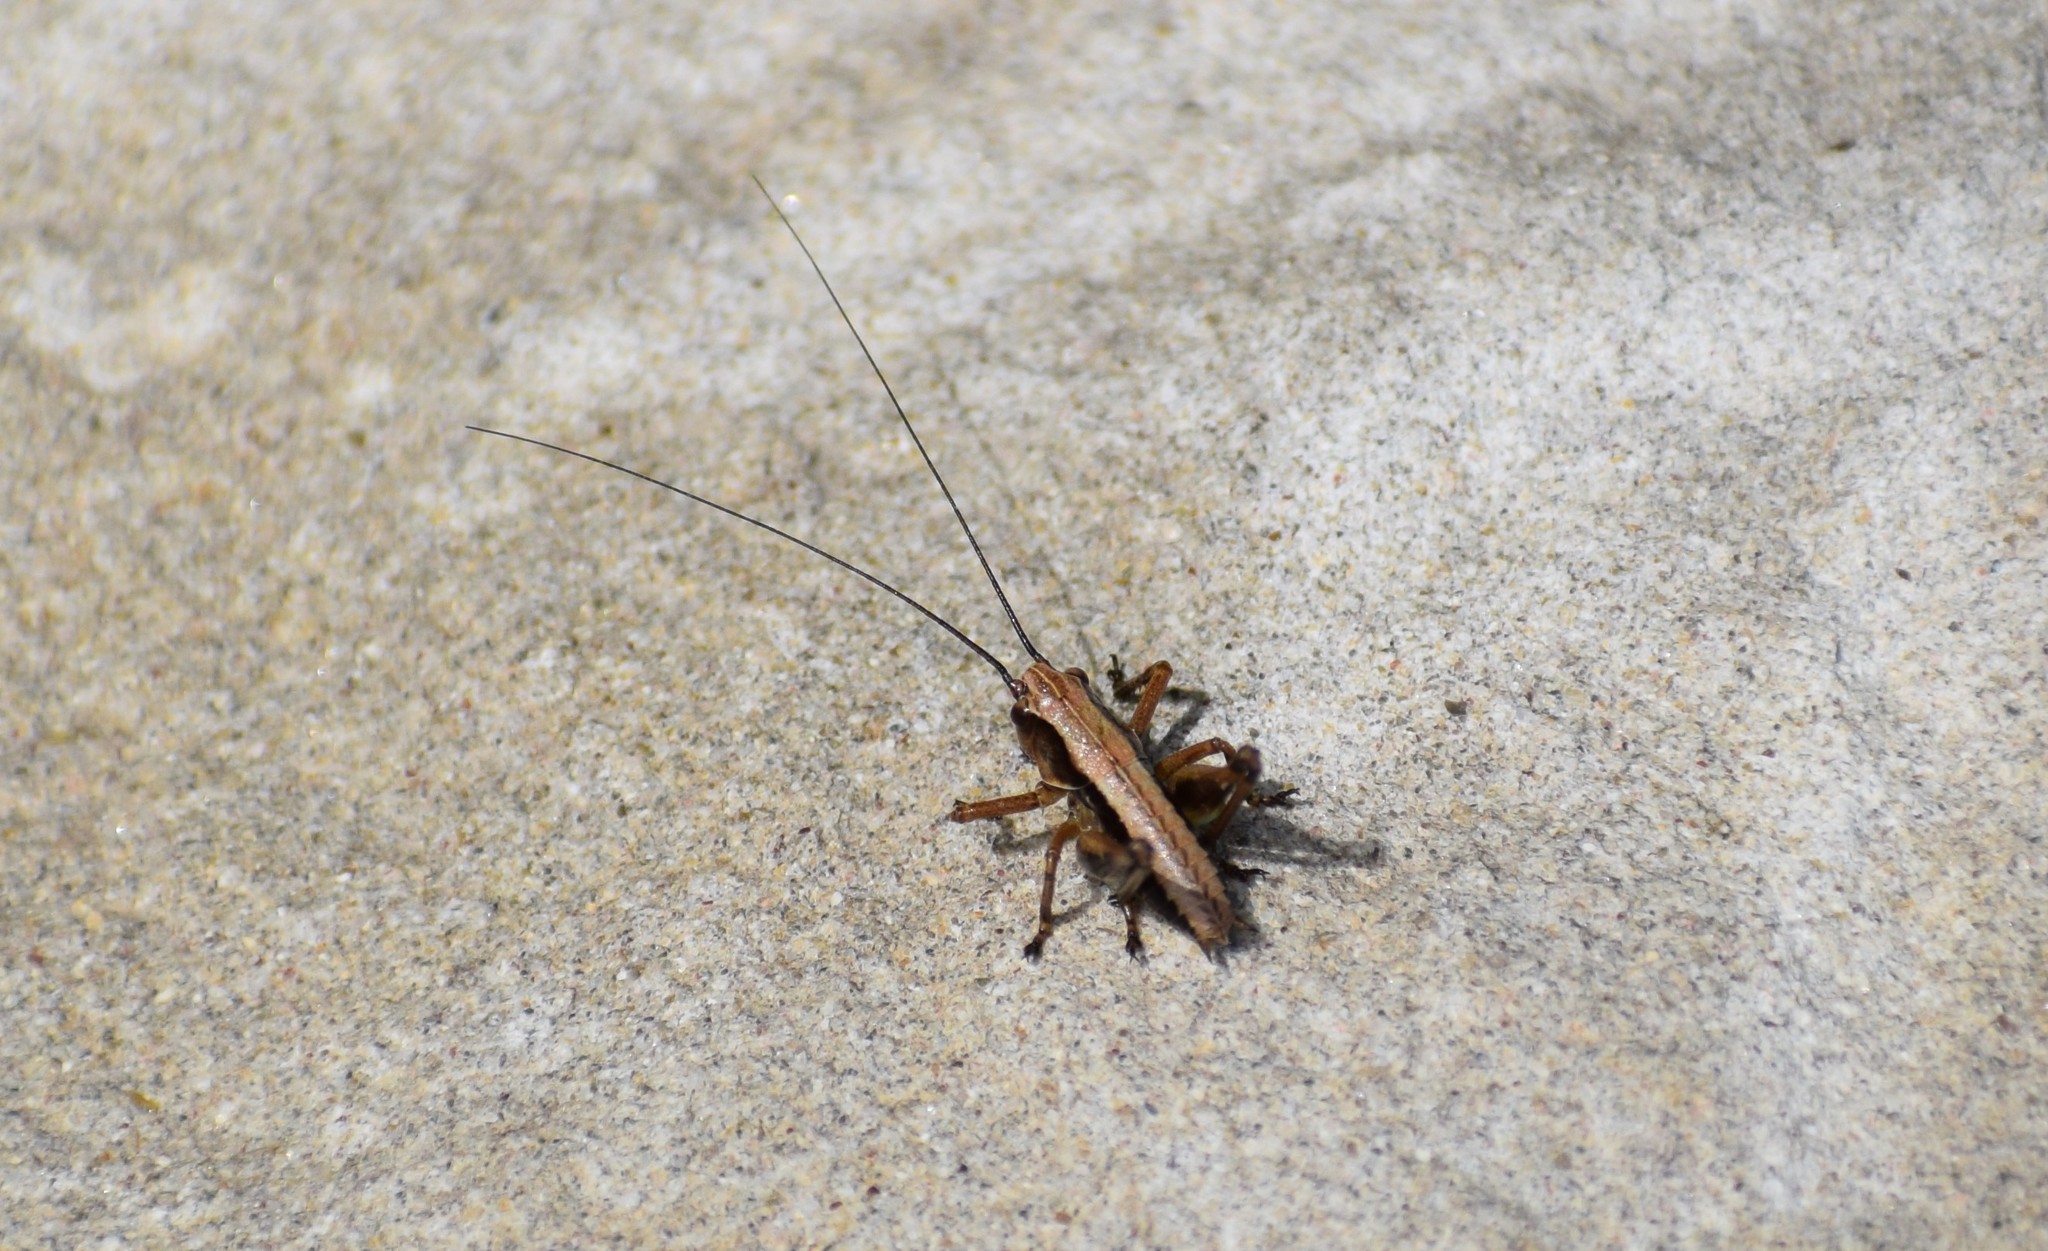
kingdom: Animalia
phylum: Arthropoda
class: Insecta
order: Orthoptera
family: Tettigoniidae
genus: Pholidoptera
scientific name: Pholidoptera griseoaptera
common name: Dark bush-cricket
